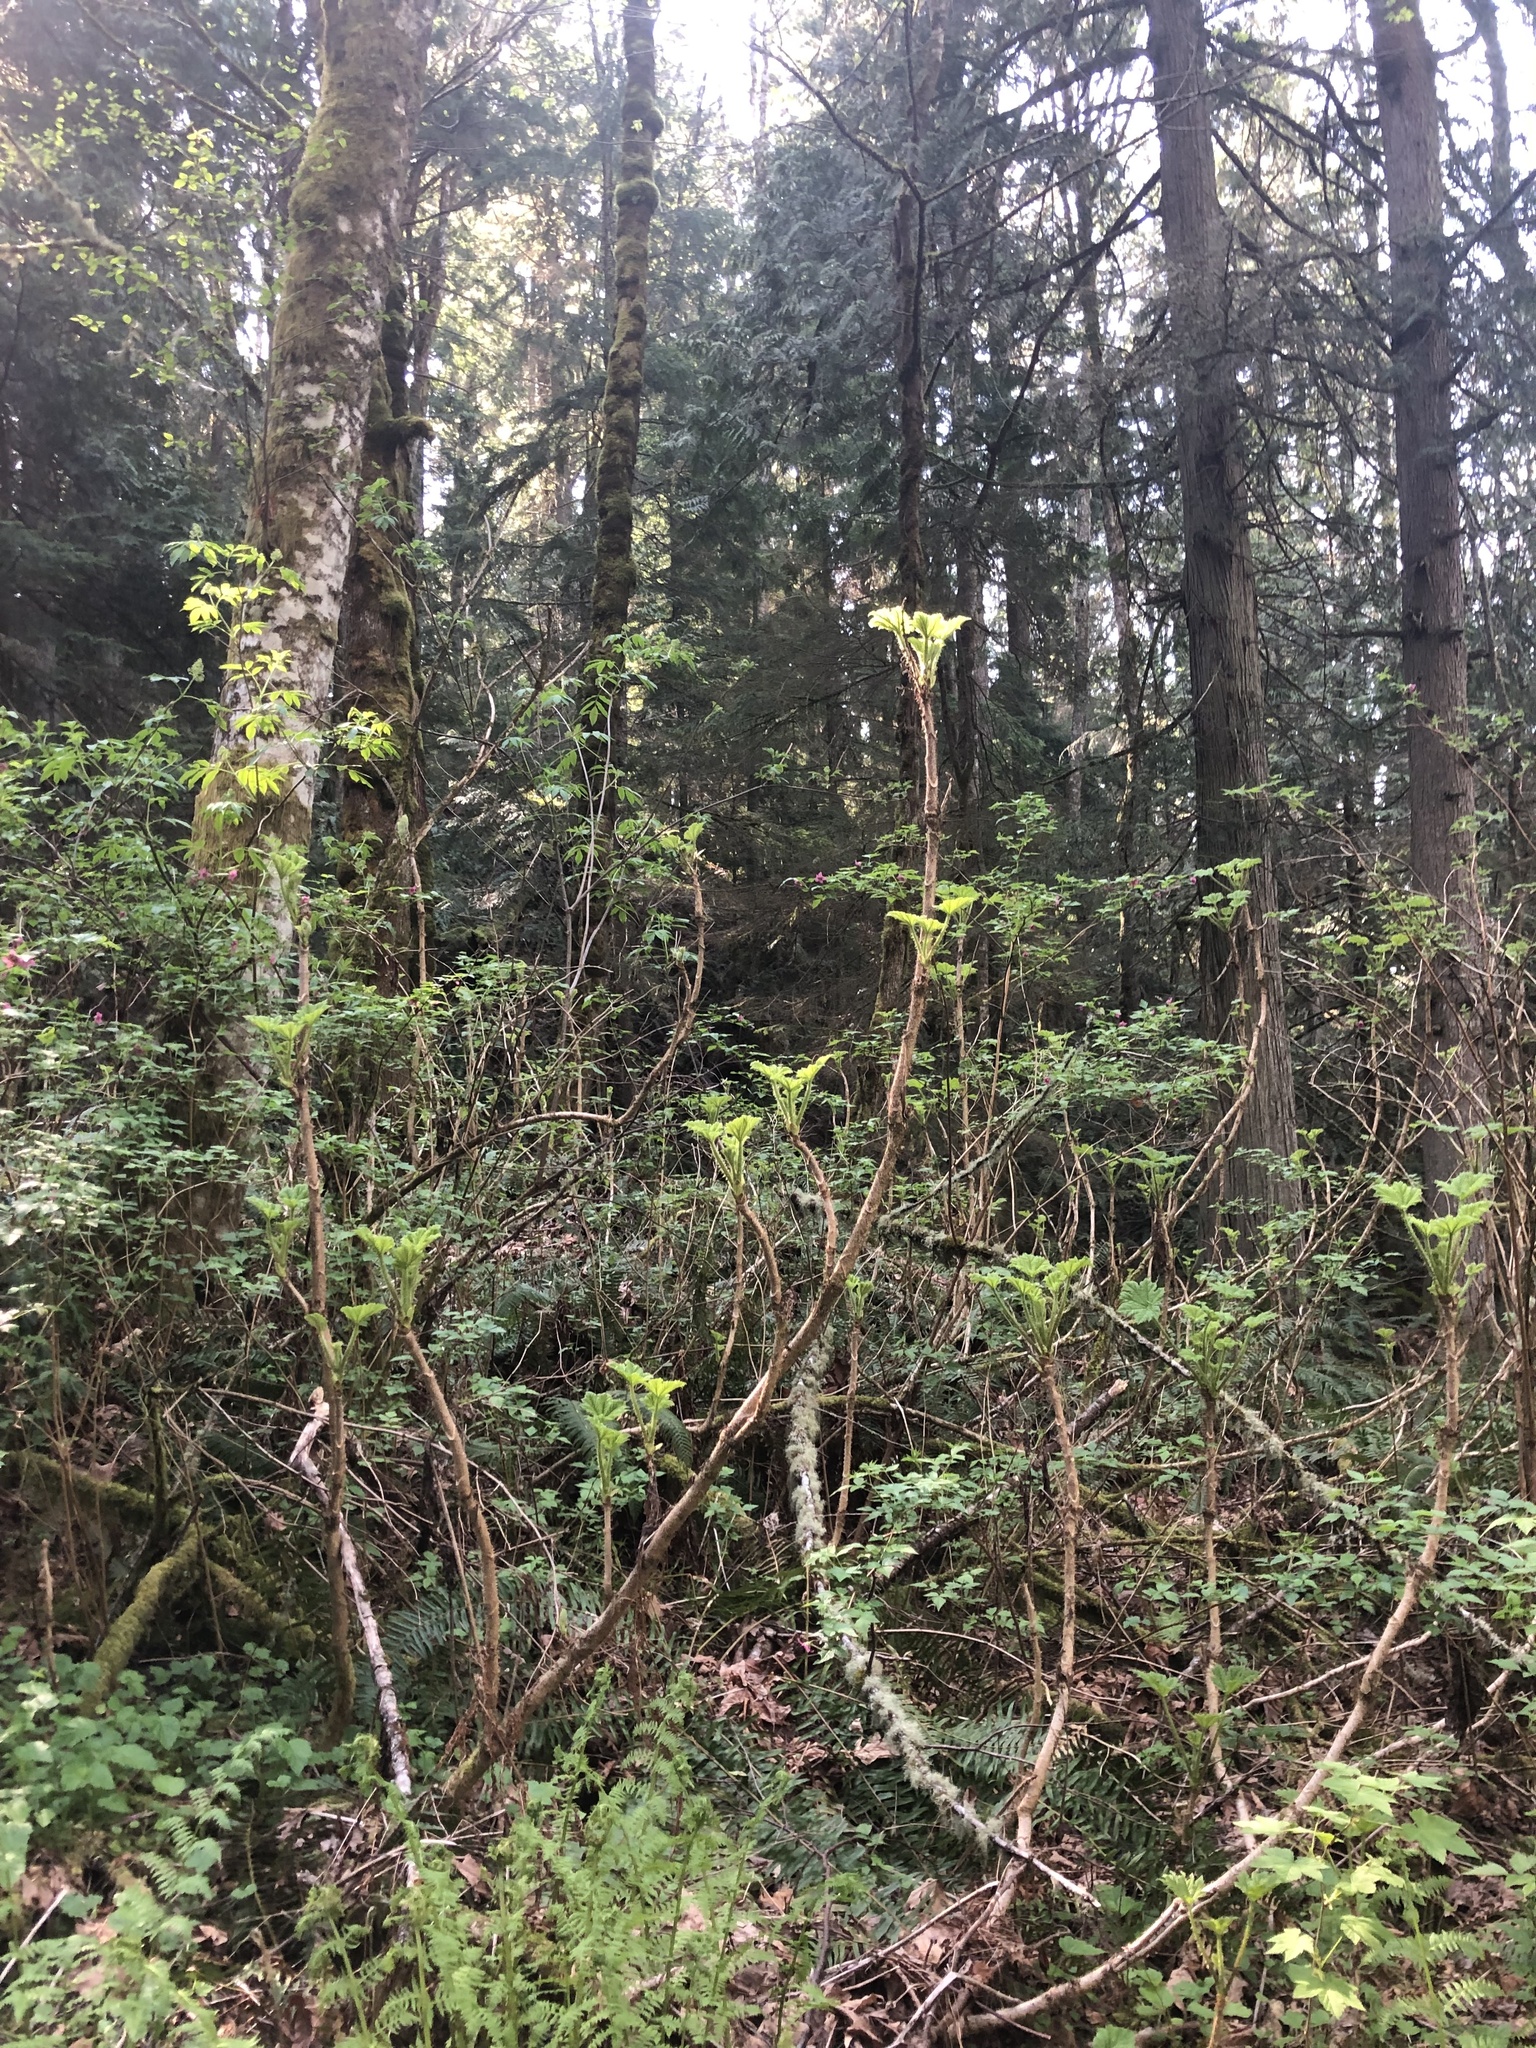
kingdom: Plantae
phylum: Tracheophyta
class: Magnoliopsida
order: Apiales
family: Araliaceae
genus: Oplopanax
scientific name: Oplopanax horridus
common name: Devil's walking-stick
